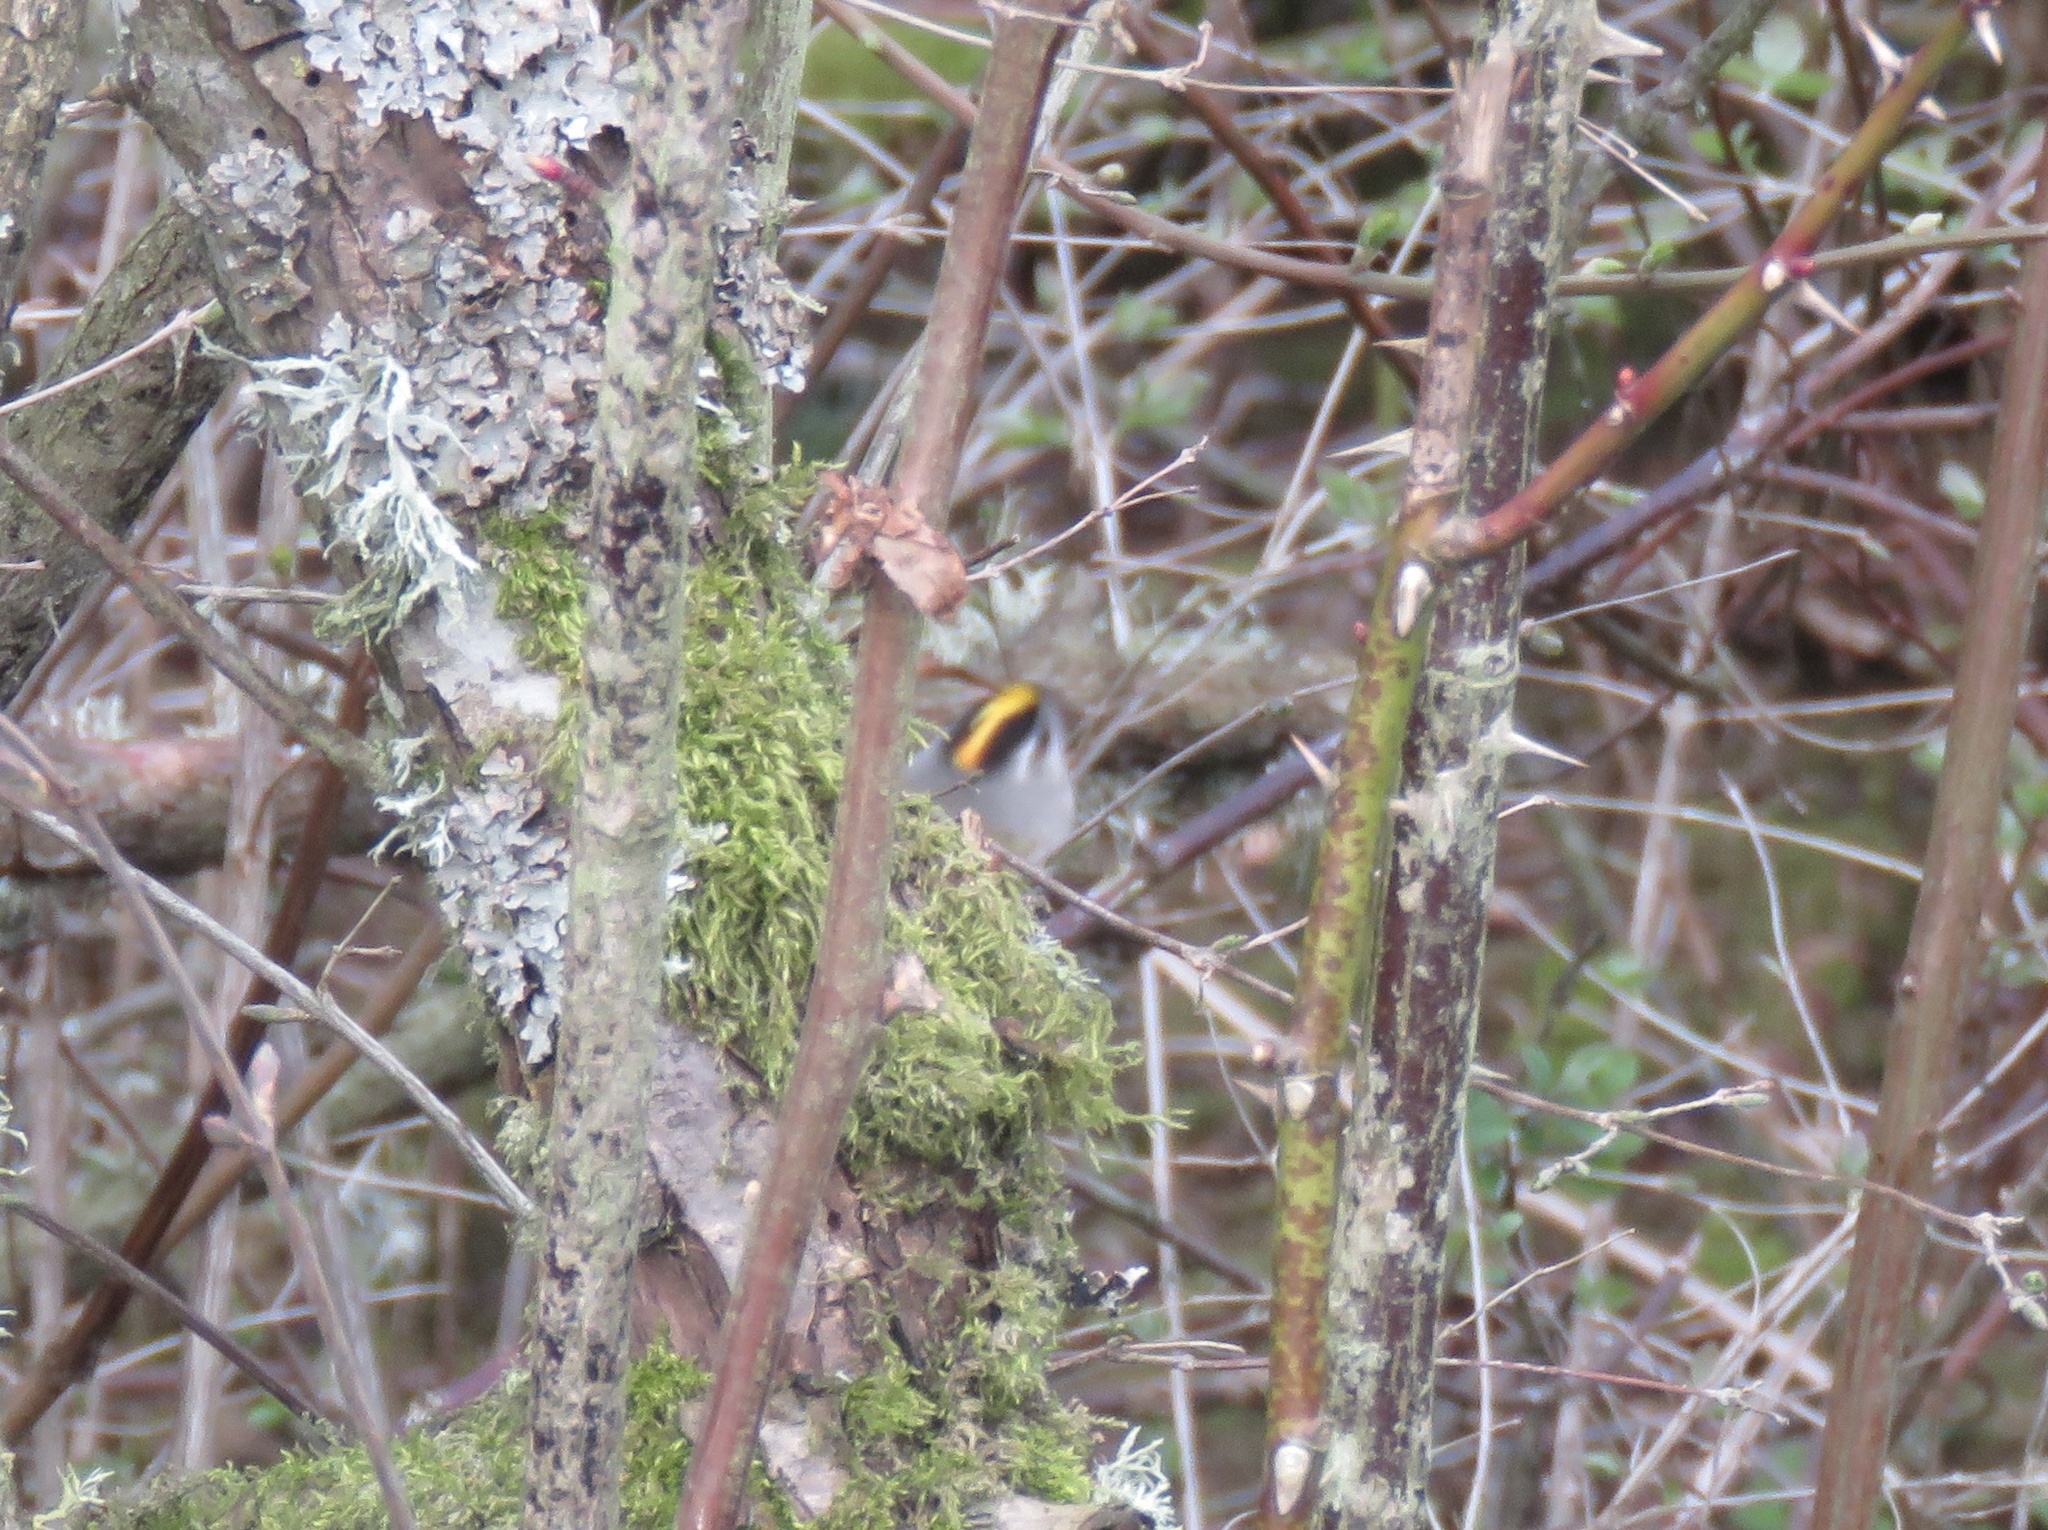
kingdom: Animalia
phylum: Chordata
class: Aves
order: Passeriformes
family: Regulidae
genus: Regulus
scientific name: Regulus satrapa
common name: Golden-crowned kinglet
